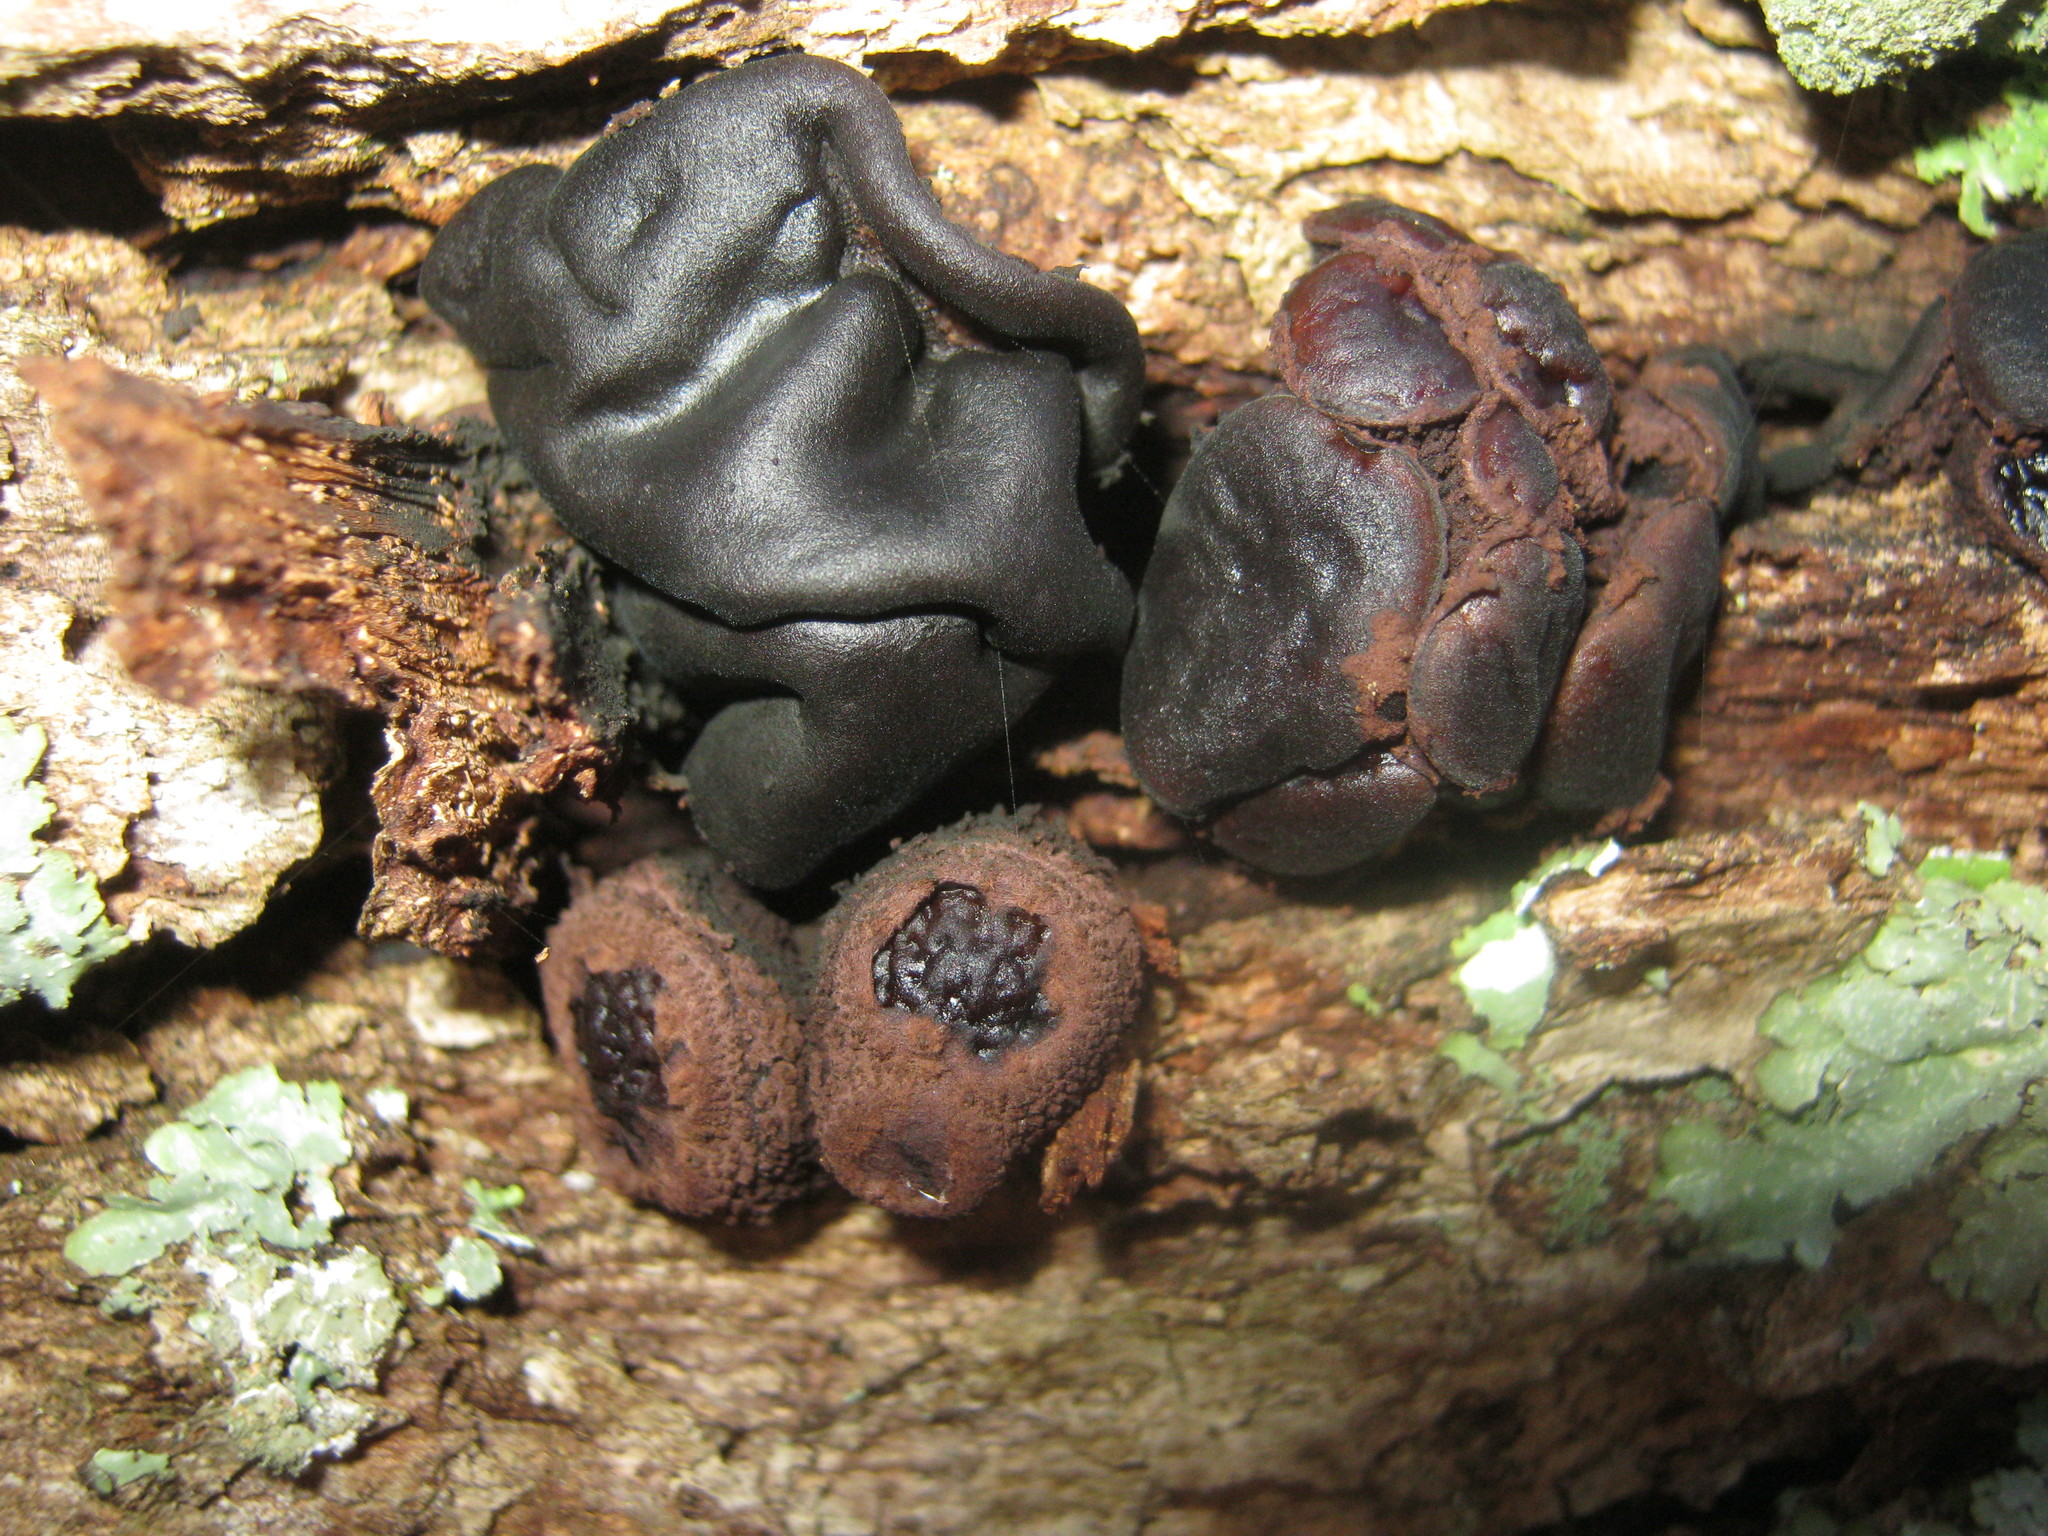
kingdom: Fungi
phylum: Ascomycota
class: Leotiomycetes
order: Phacidiales
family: Phacidiaceae
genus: Bulgaria
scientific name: Bulgaria inquinans
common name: Black bulgar
